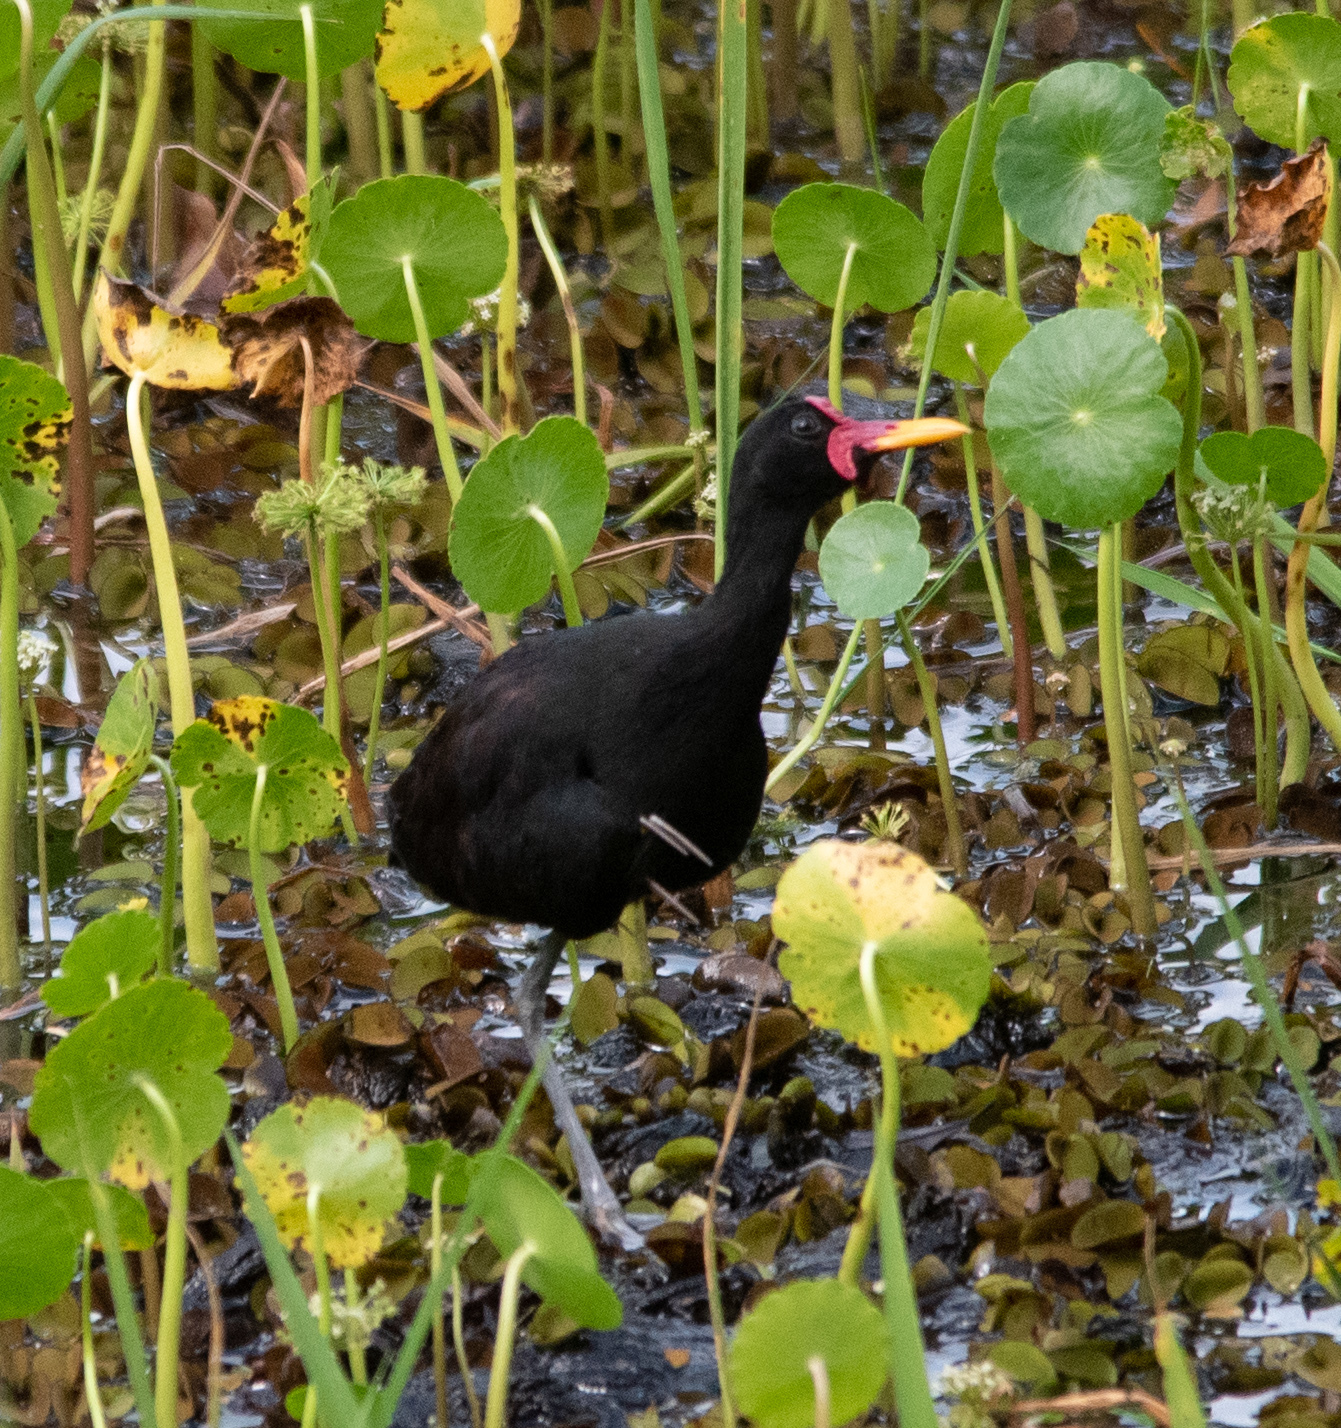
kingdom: Animalia
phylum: Chordata
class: Aves
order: Charadriiformes
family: Jacanidae
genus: Jacana
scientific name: Jacana jacana
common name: Wattled jacana
